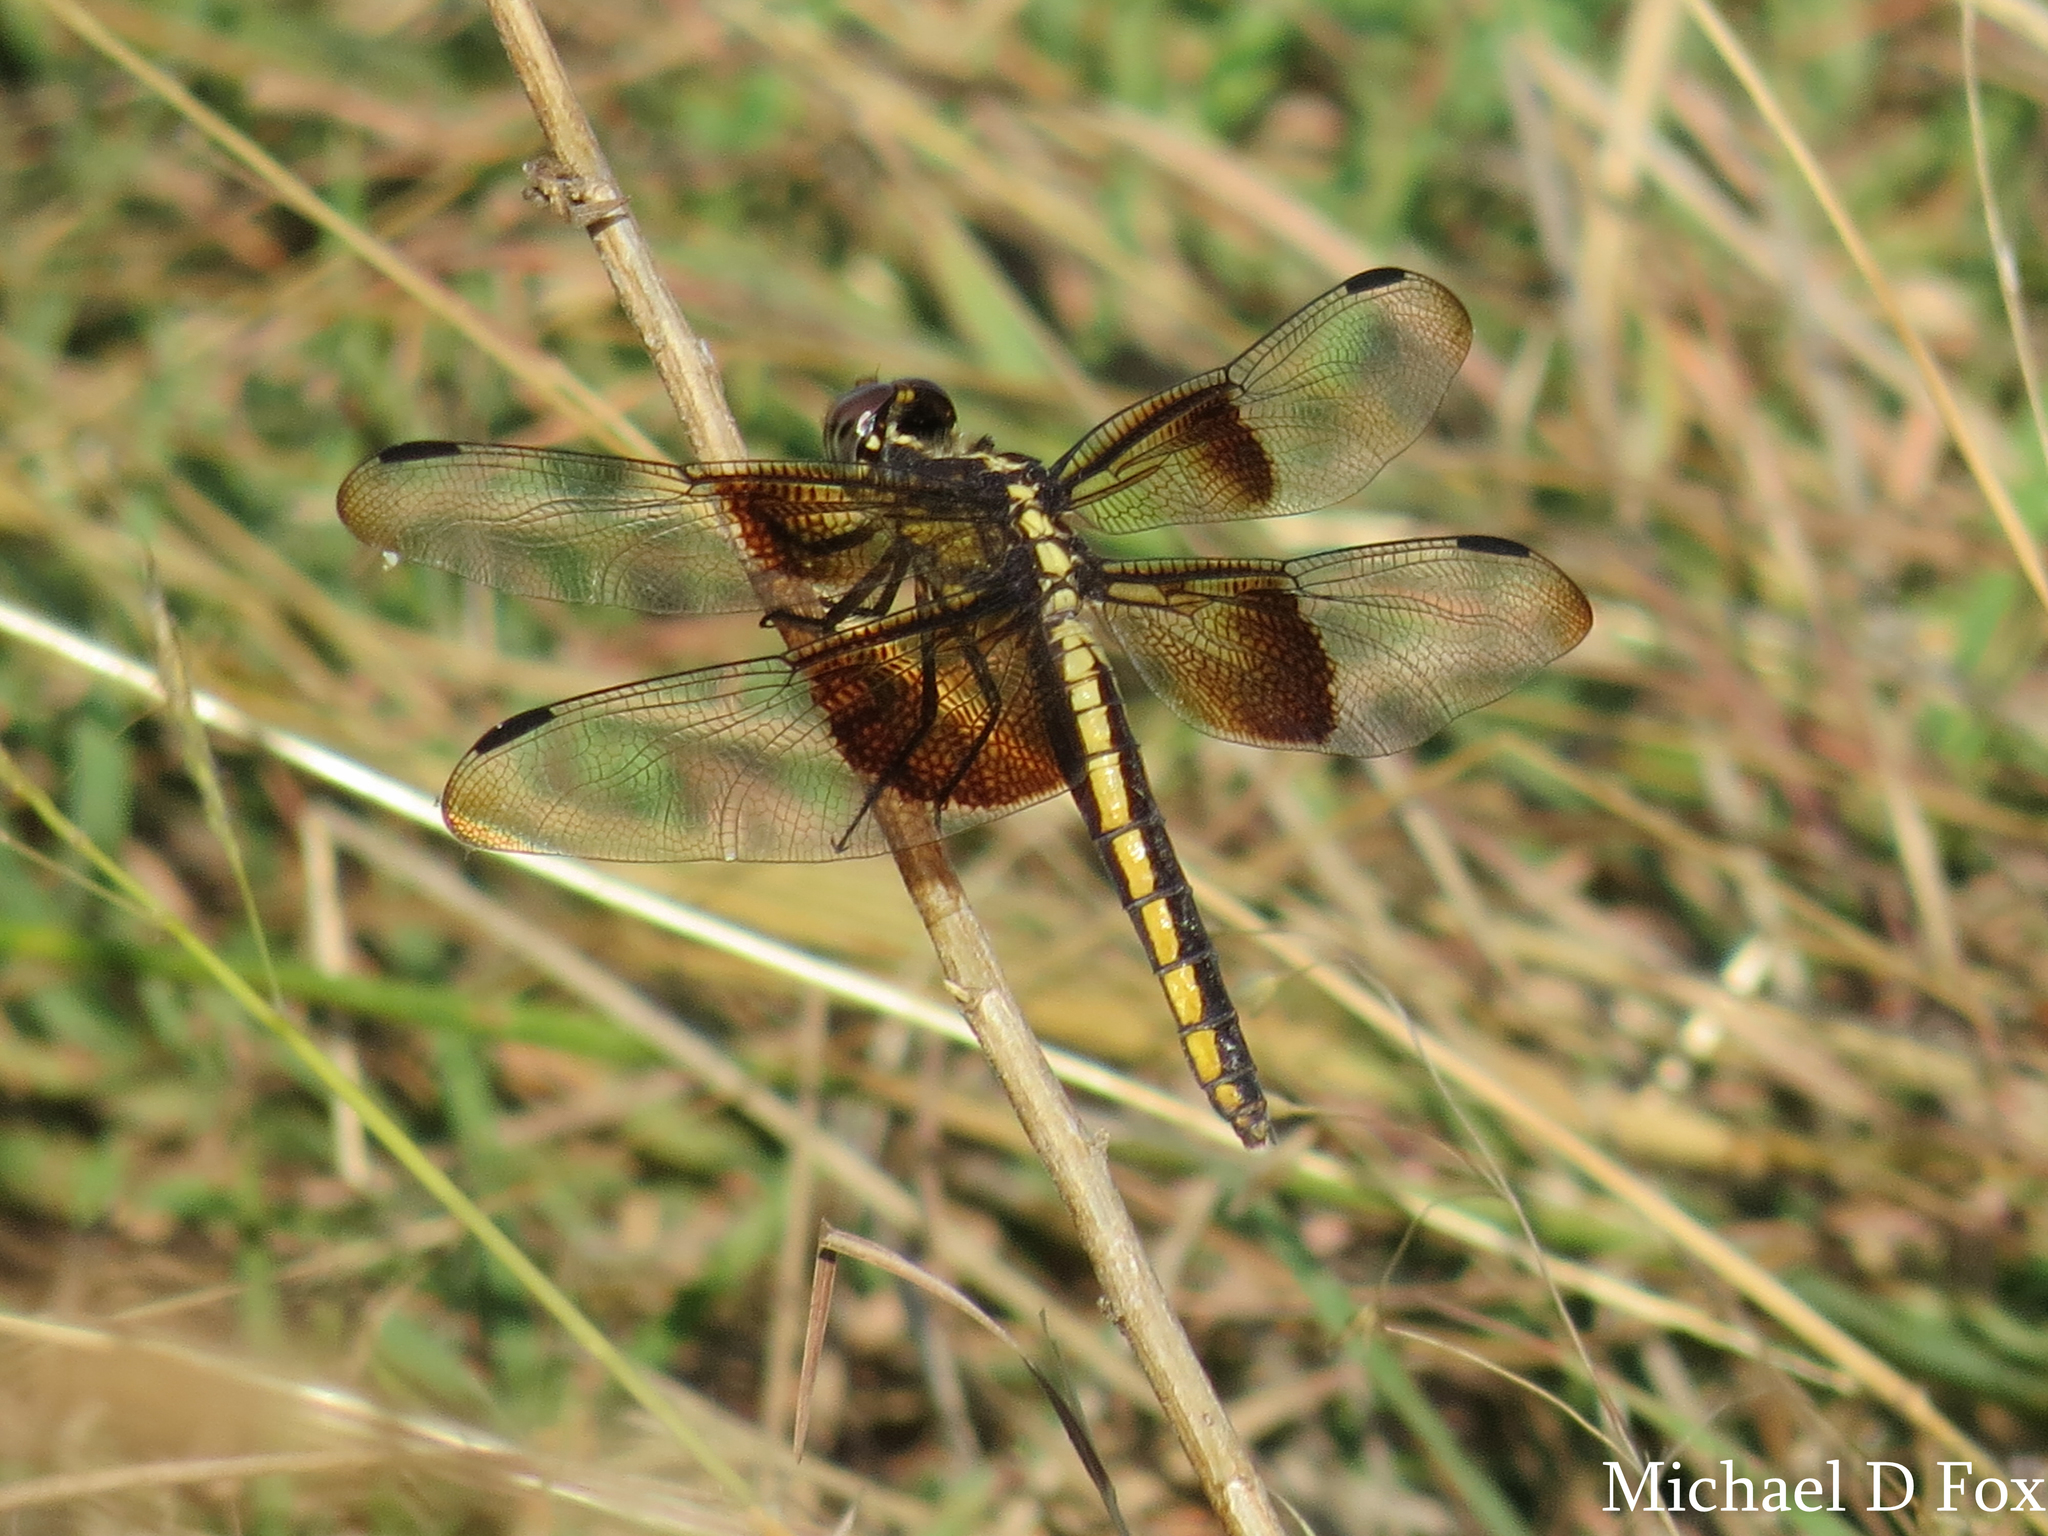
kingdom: Animalia
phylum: Arthropoda
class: Insecta
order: Odonata
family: Libellulidae
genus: Libellula
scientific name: Libellula luctuosa
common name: Widow skimmer
